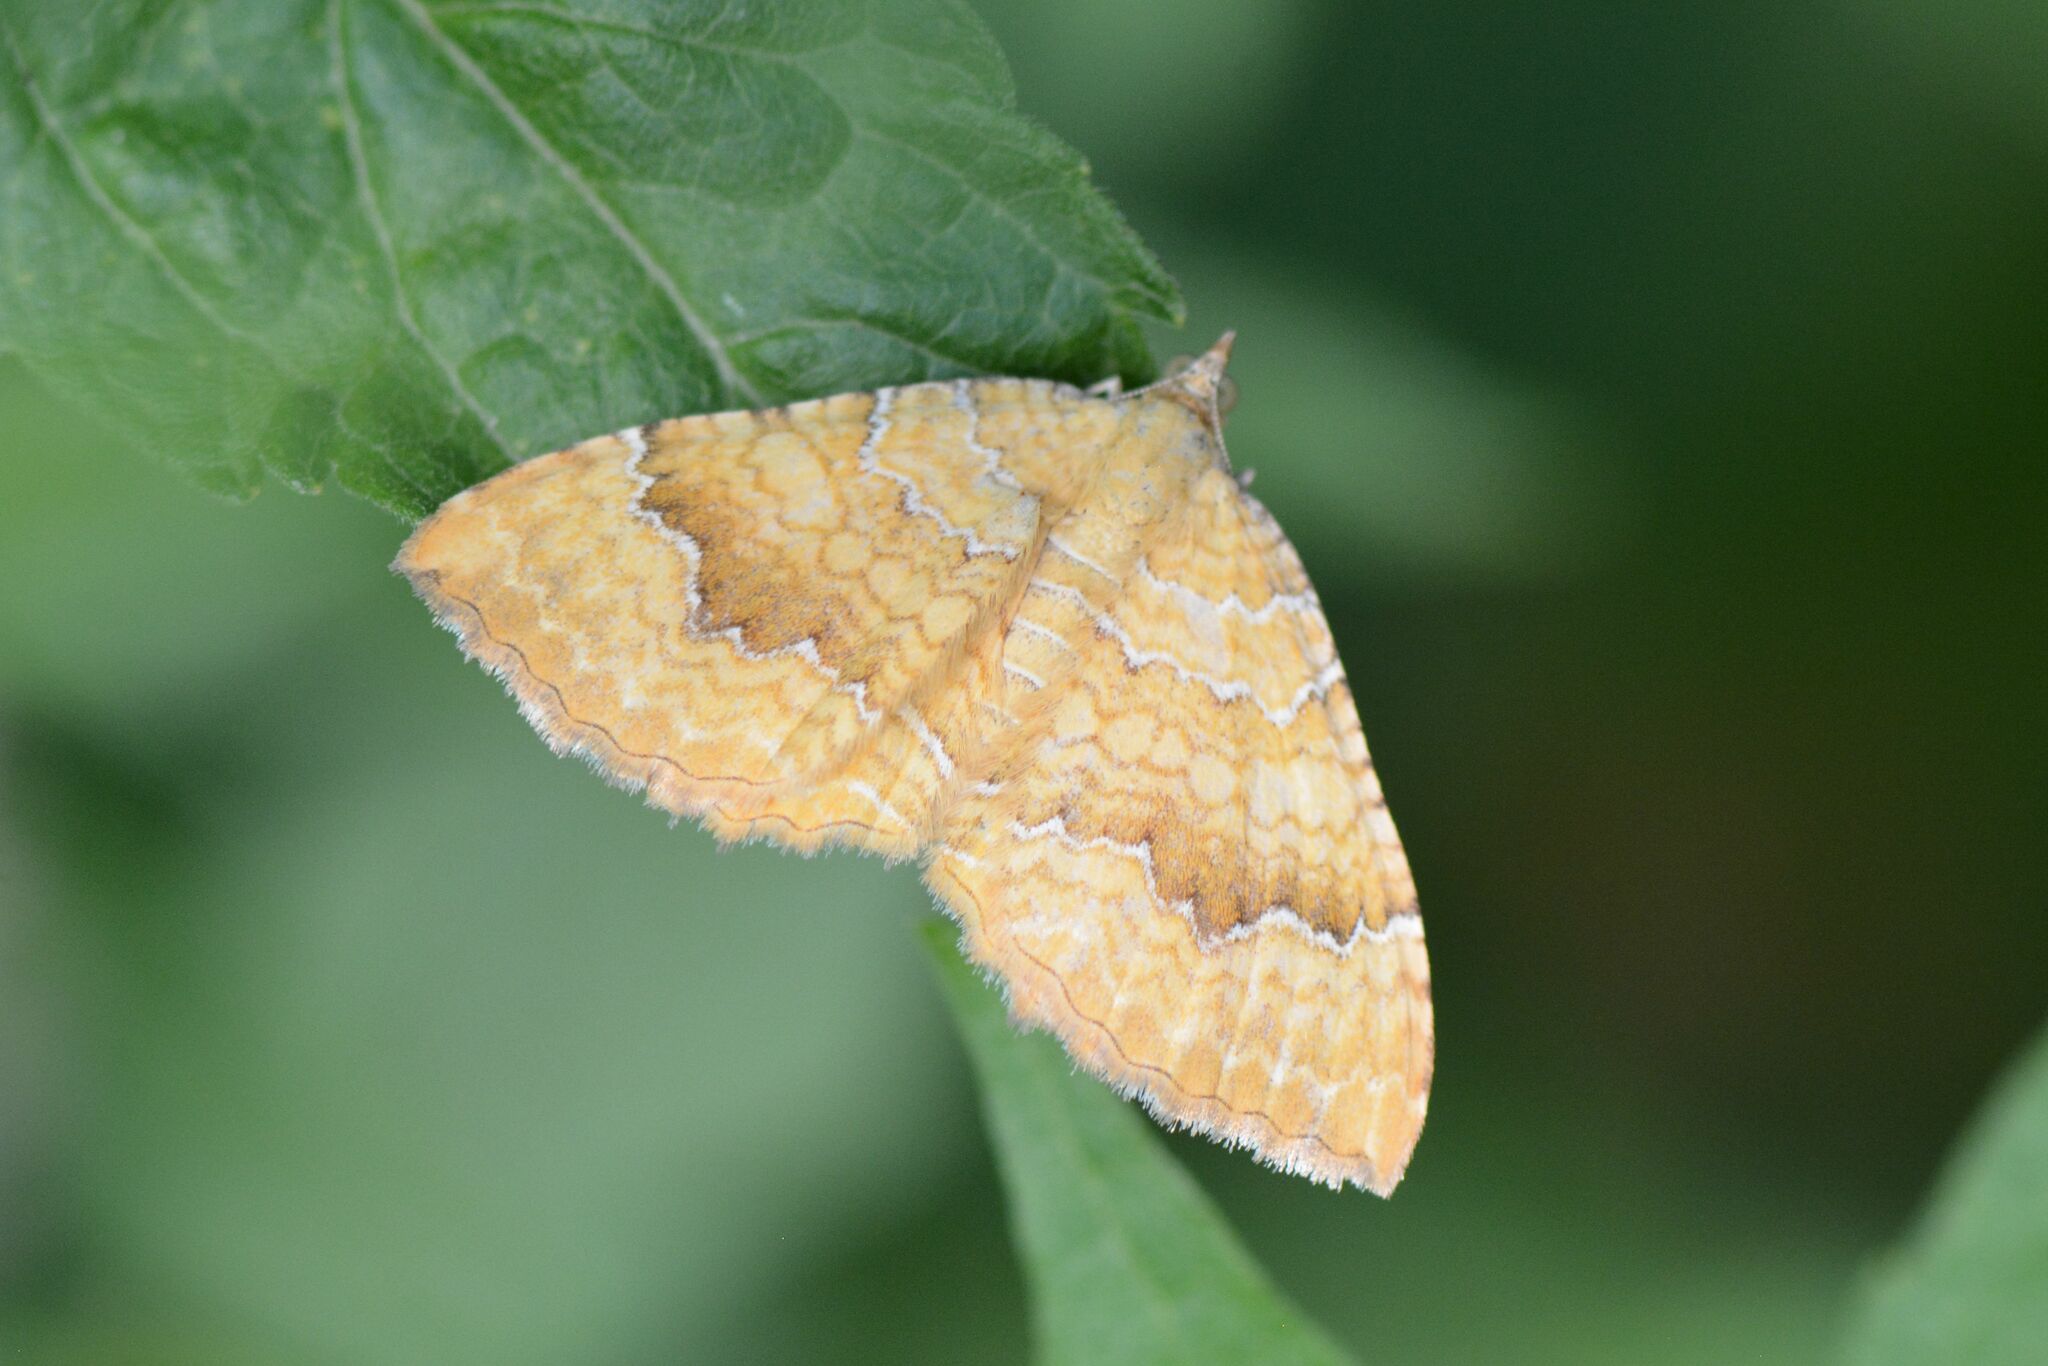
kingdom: Animalia
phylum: Arthropoda
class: Insecta
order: Lepidoptera
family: Geometridae
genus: Camptogramma
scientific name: Camptogramma bilineata
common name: Yellow shell
